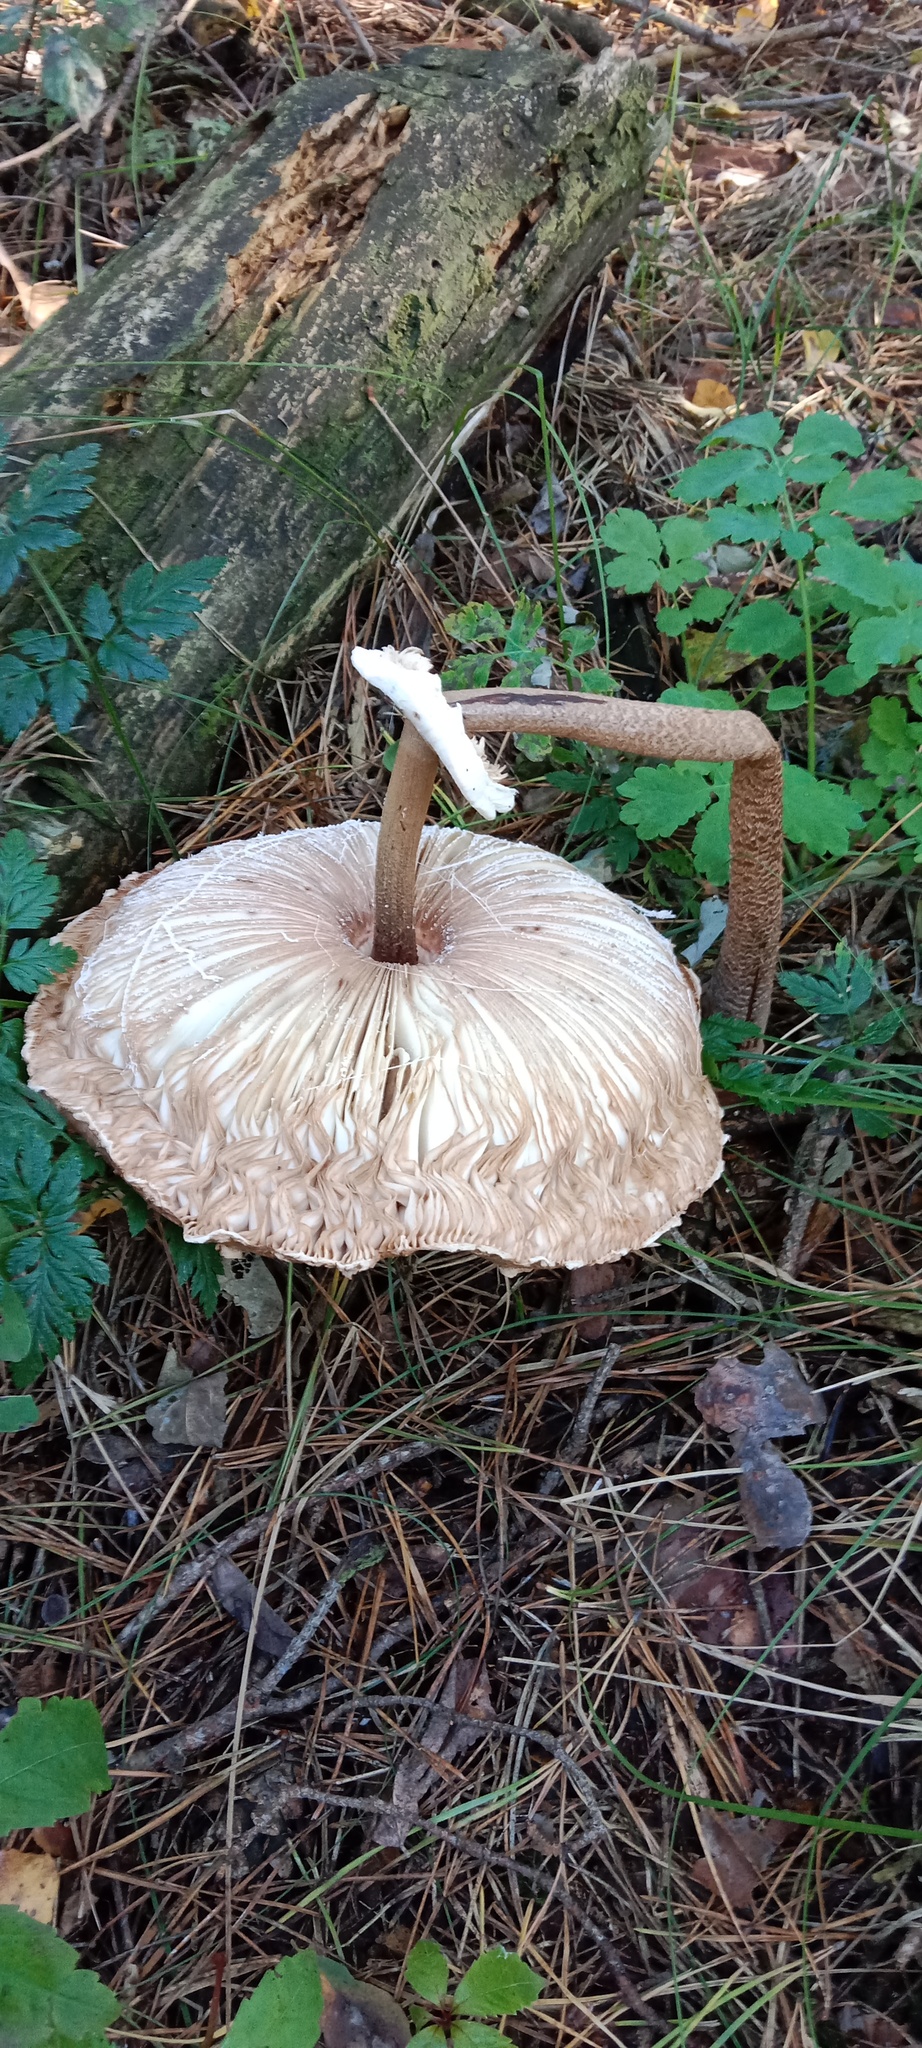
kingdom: Fungi
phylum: Basidiomycota
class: Agaricomycetes
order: Agaricales
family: Agaricaceae
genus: Macrolepiota
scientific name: Macrolepiota procera
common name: Parasol
